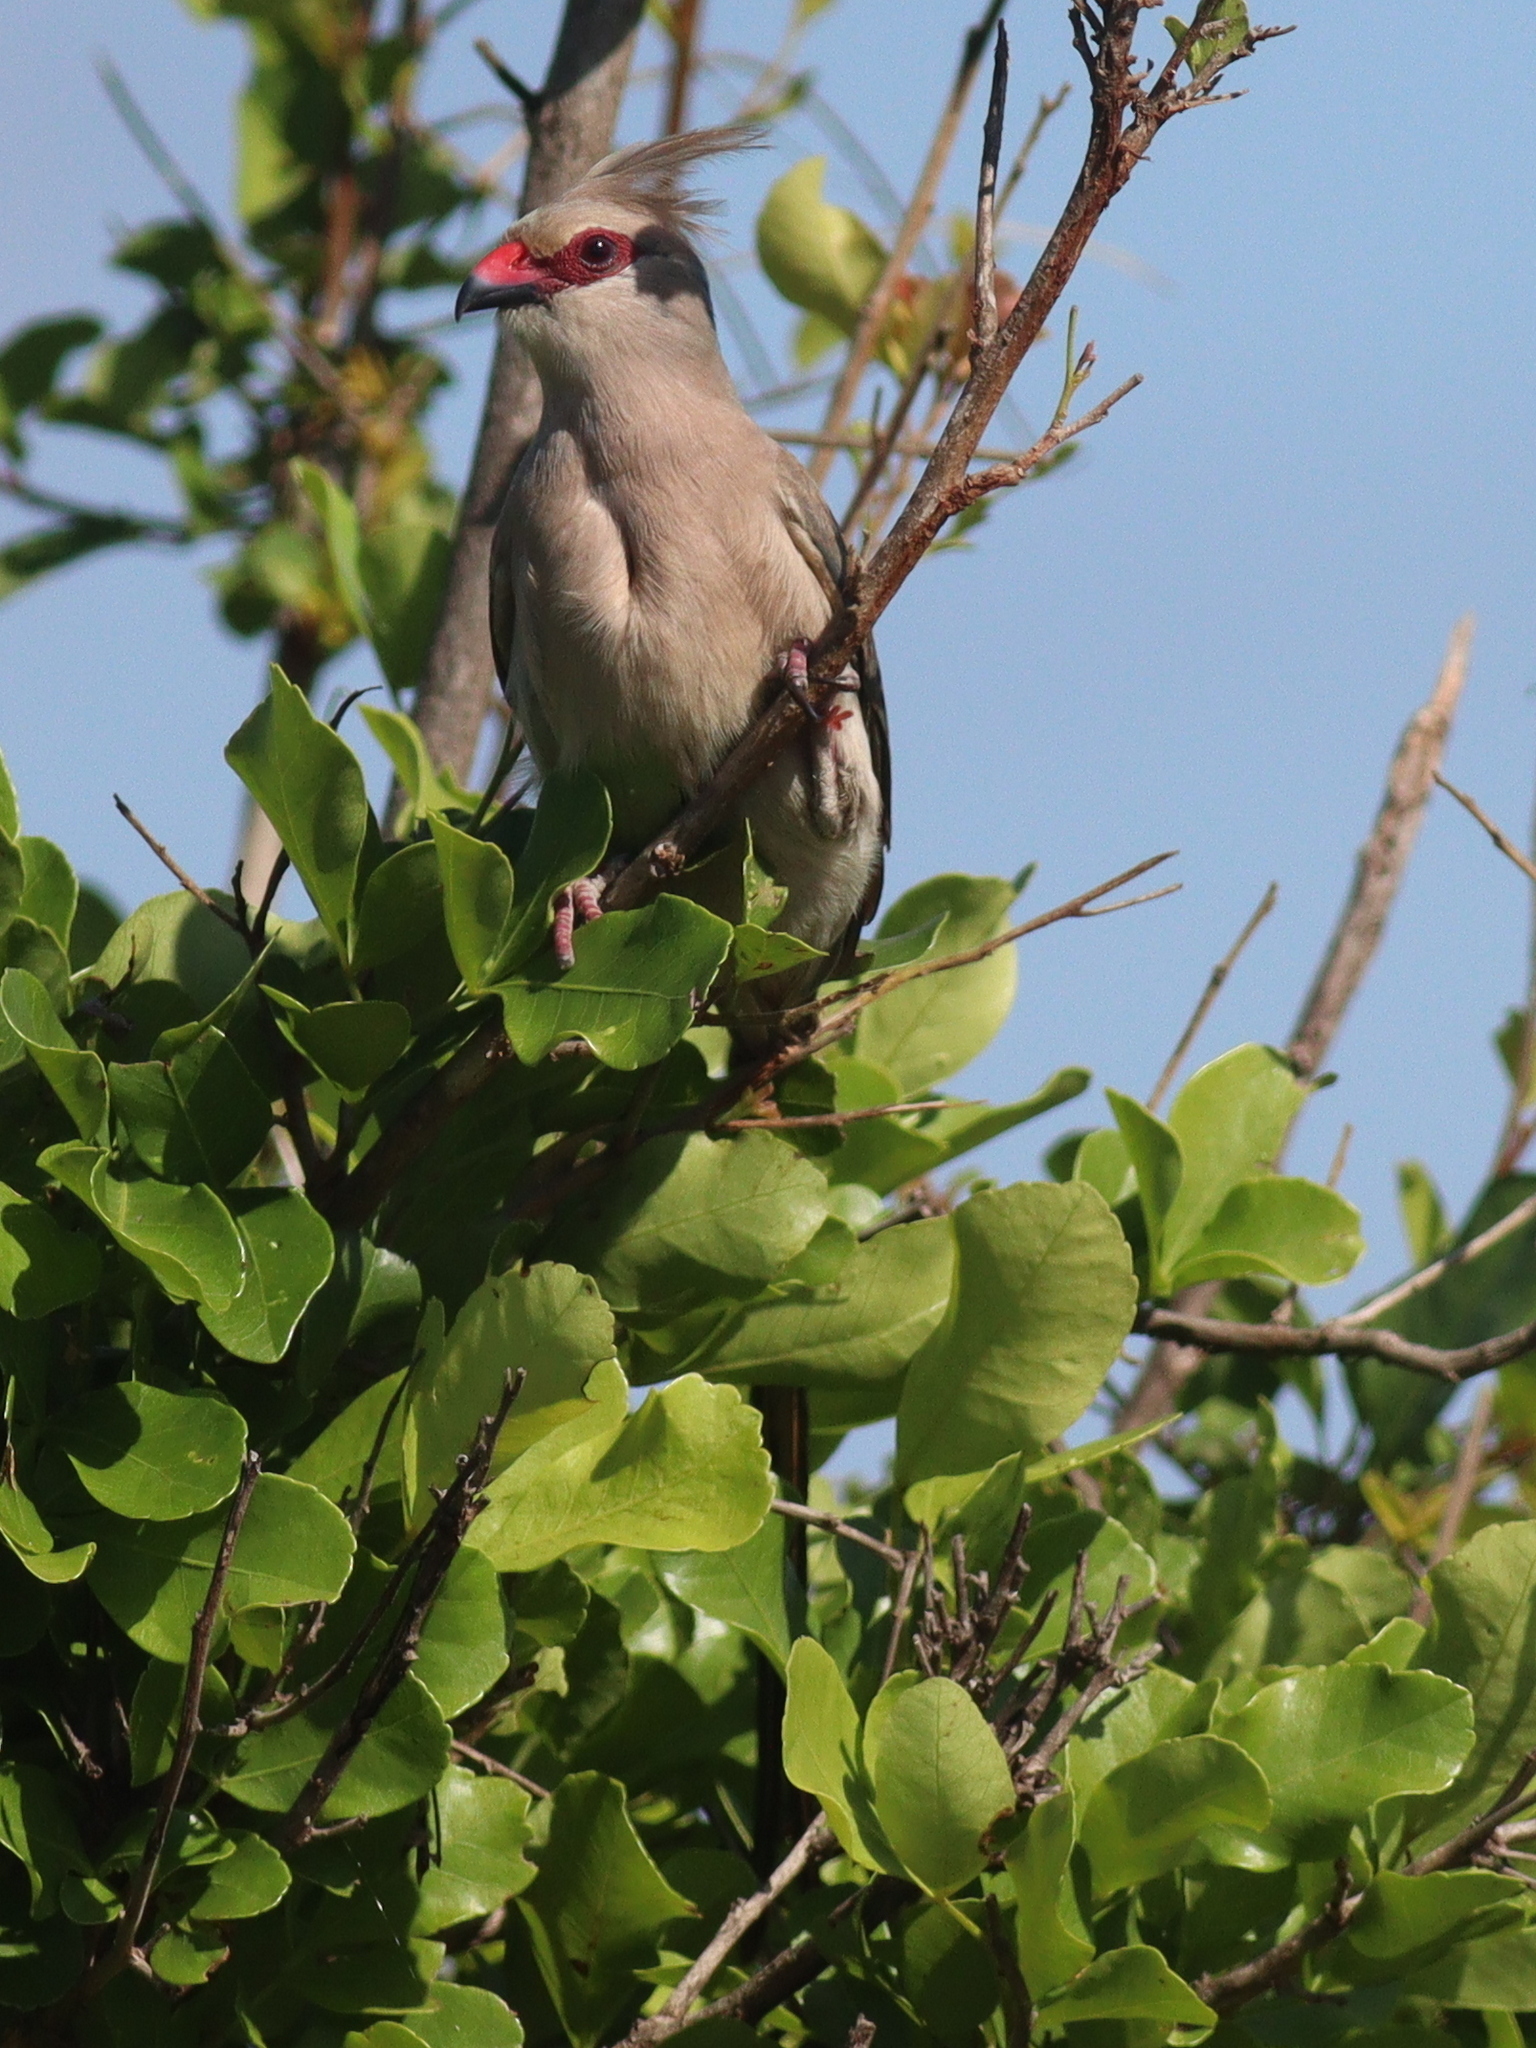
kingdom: Animalia
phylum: Chordata
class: Aves
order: Coliiformes
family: Coliidae
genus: Urocolius
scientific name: Urocolius macrourus
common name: Blue-naped mousebird
